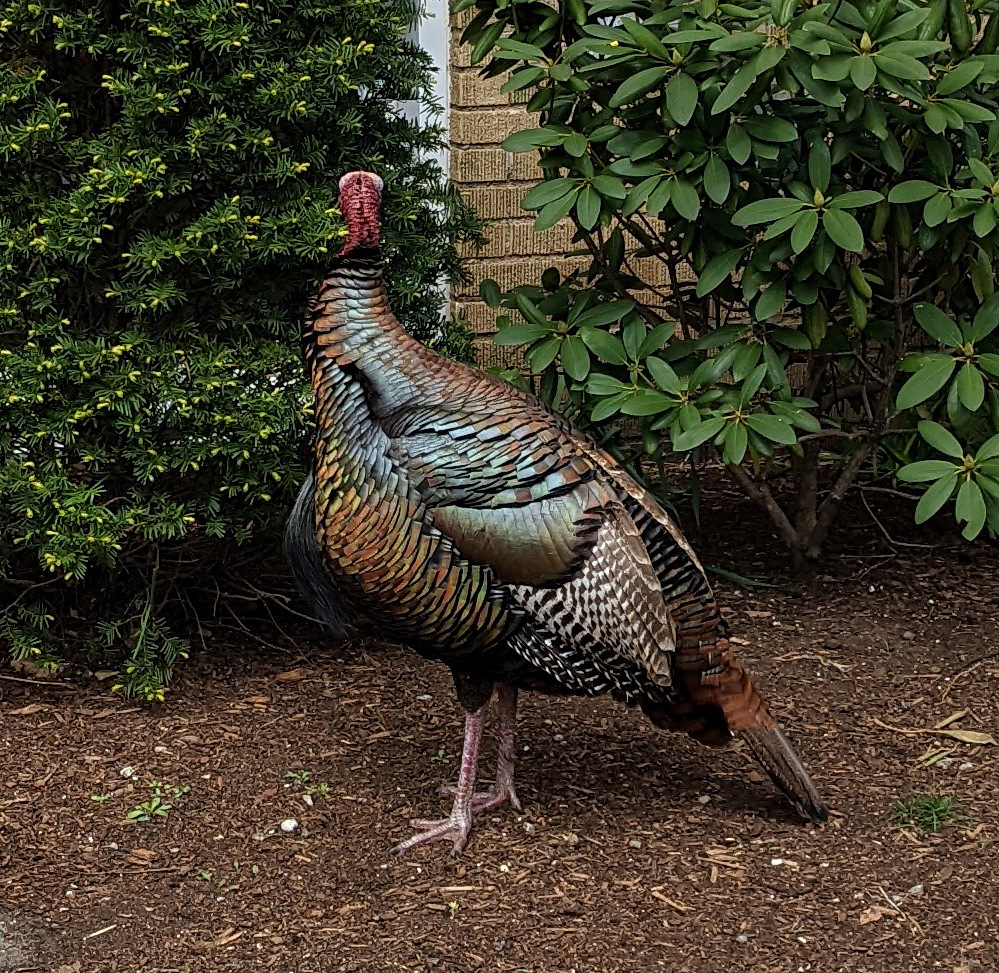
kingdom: Animalia
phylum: Chordata
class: Aves
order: Galliformes
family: Phasianidae
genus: Meleagris
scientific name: Meleagris gallopavo
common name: Wild turkey
